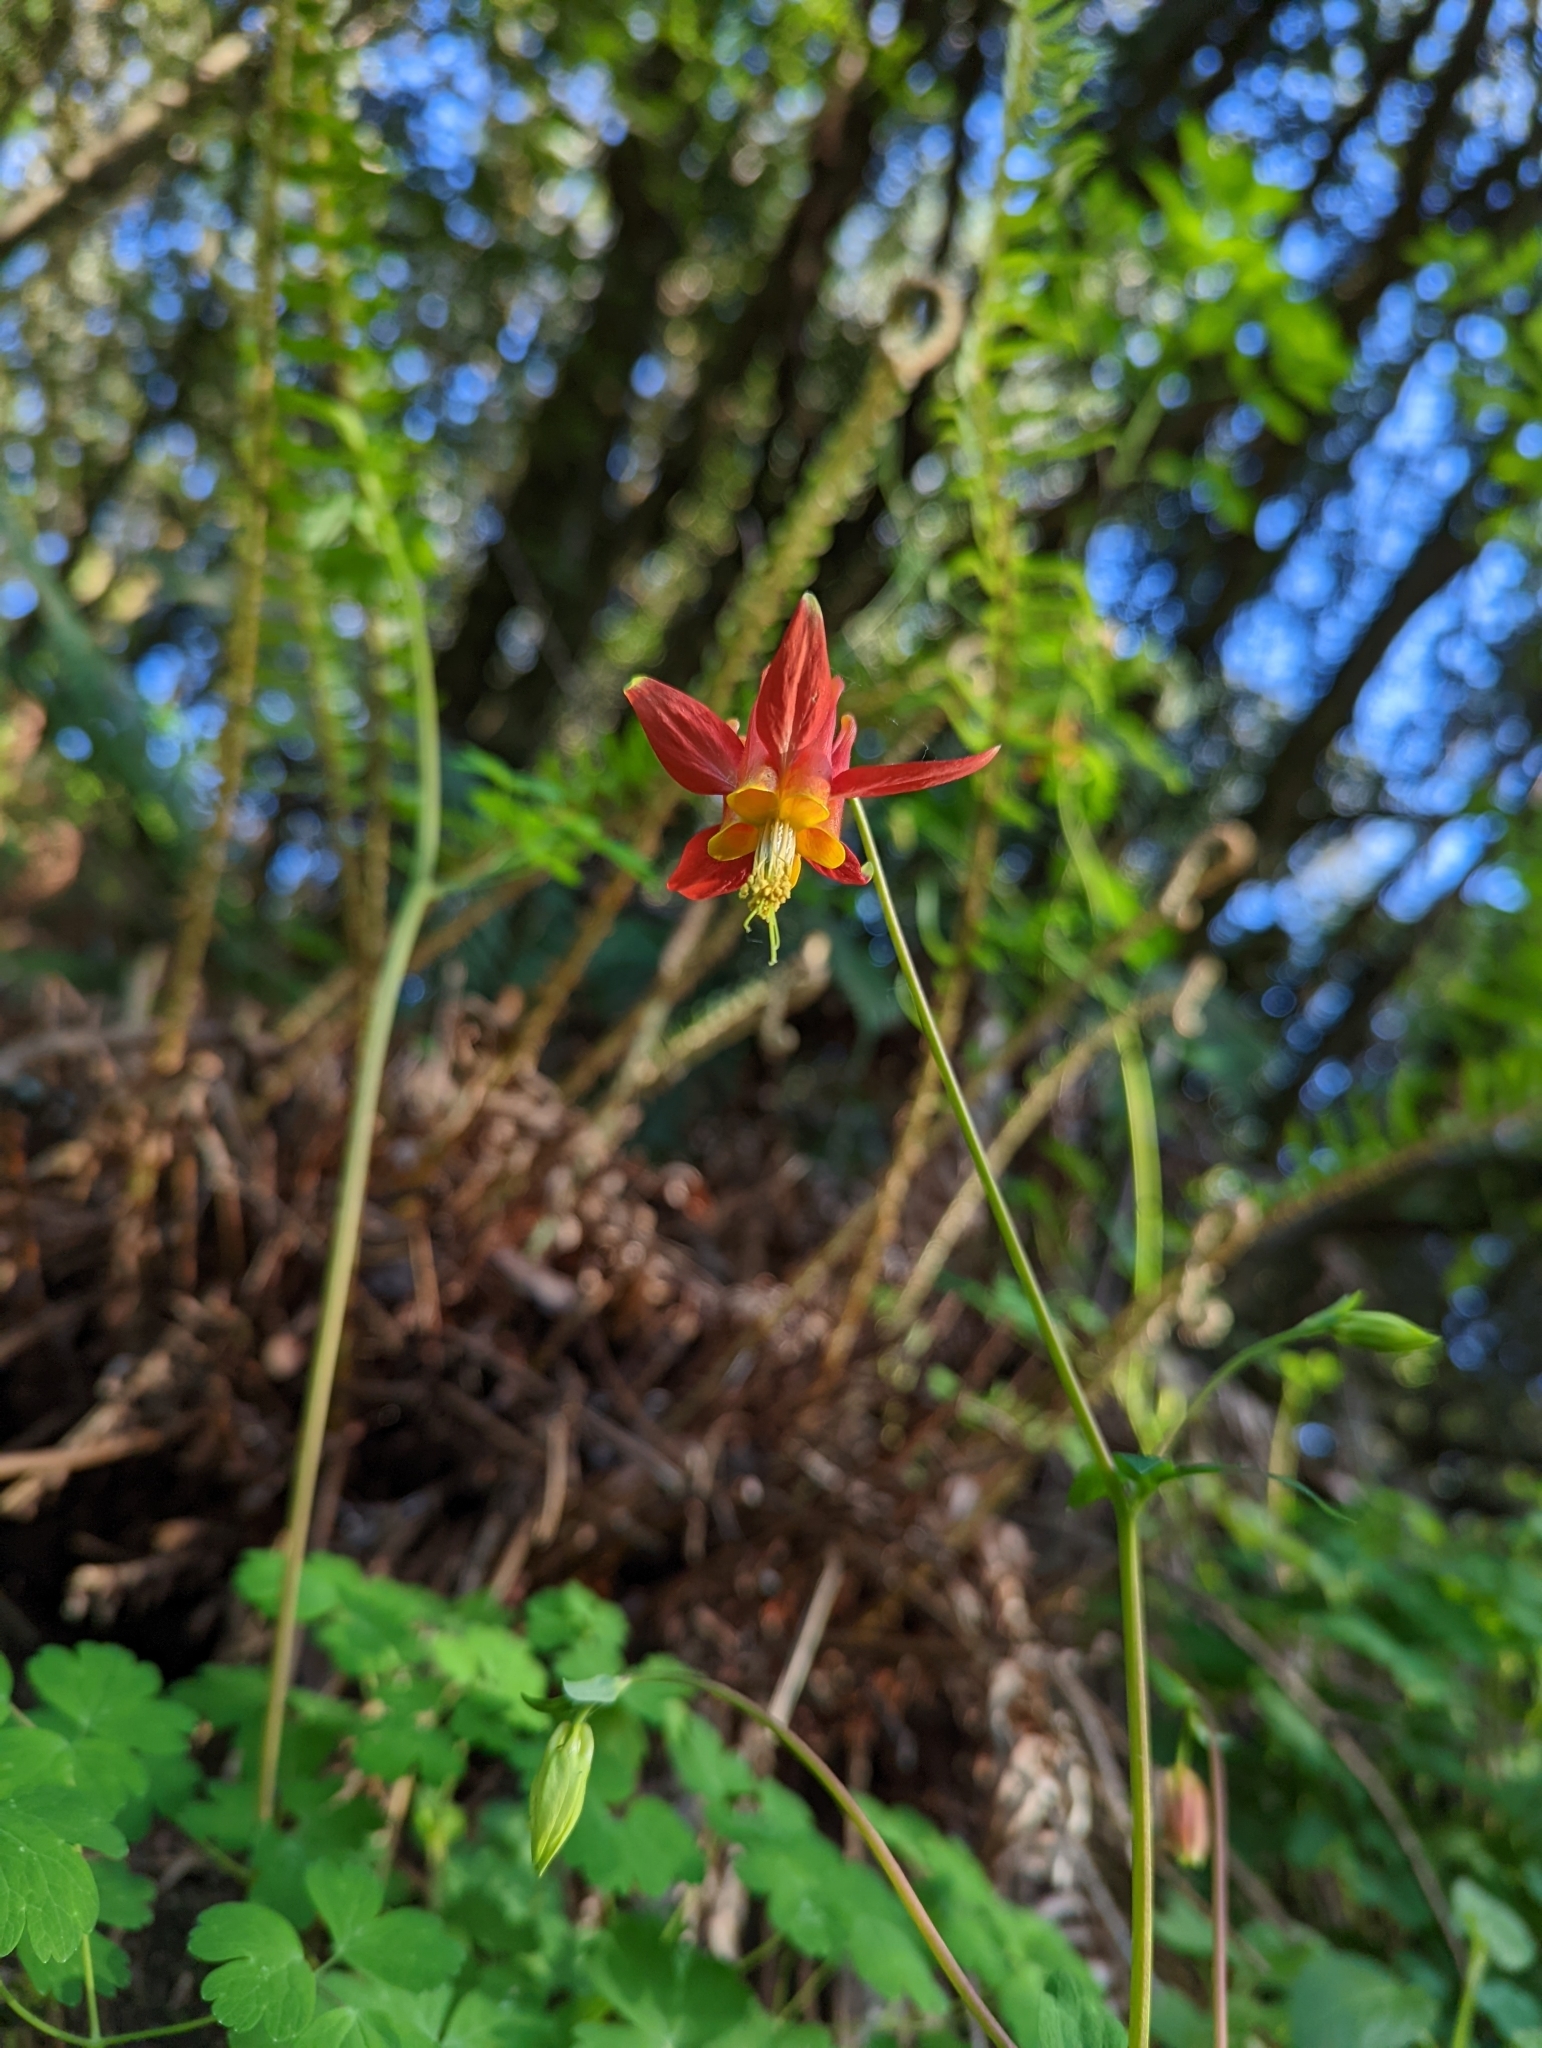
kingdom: Plantae
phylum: Tracheophyta
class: Magnoliopsida
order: Ranunculales
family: Ranunculaceae
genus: Aquilegia
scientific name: Aquilegia formosa
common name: Sitka columbine
